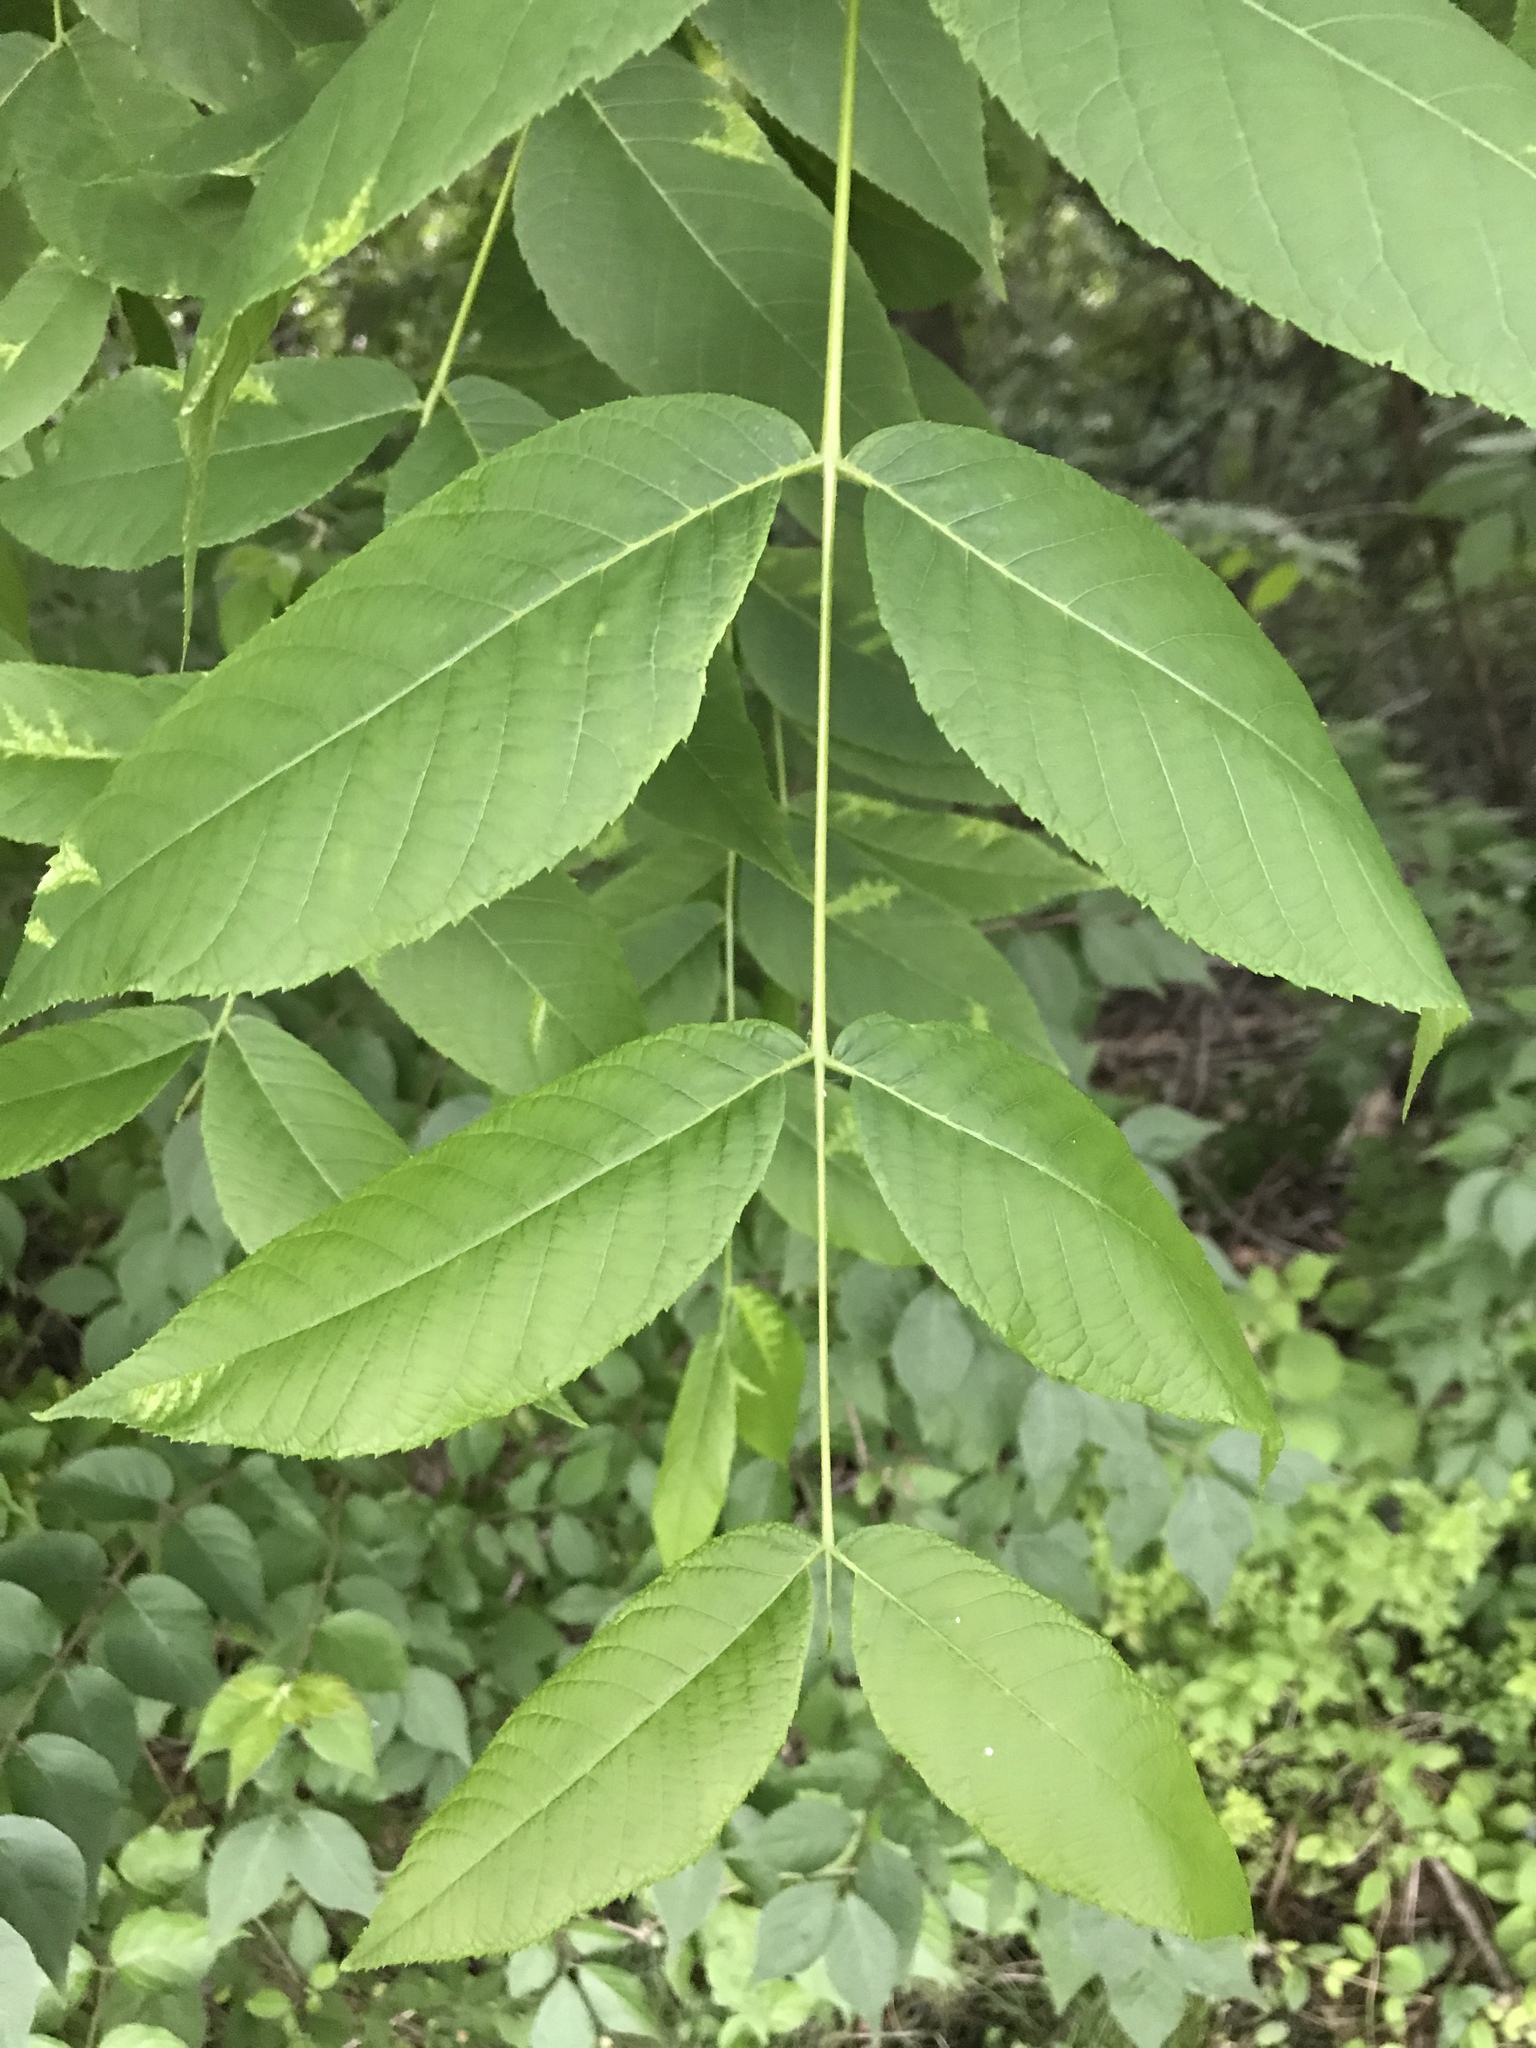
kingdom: Plantae
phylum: Tracheophyta
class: Magnoliopsida
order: Fagales
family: Juglandaceae
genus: Juglans
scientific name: Juglans nigra
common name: Black walnut
